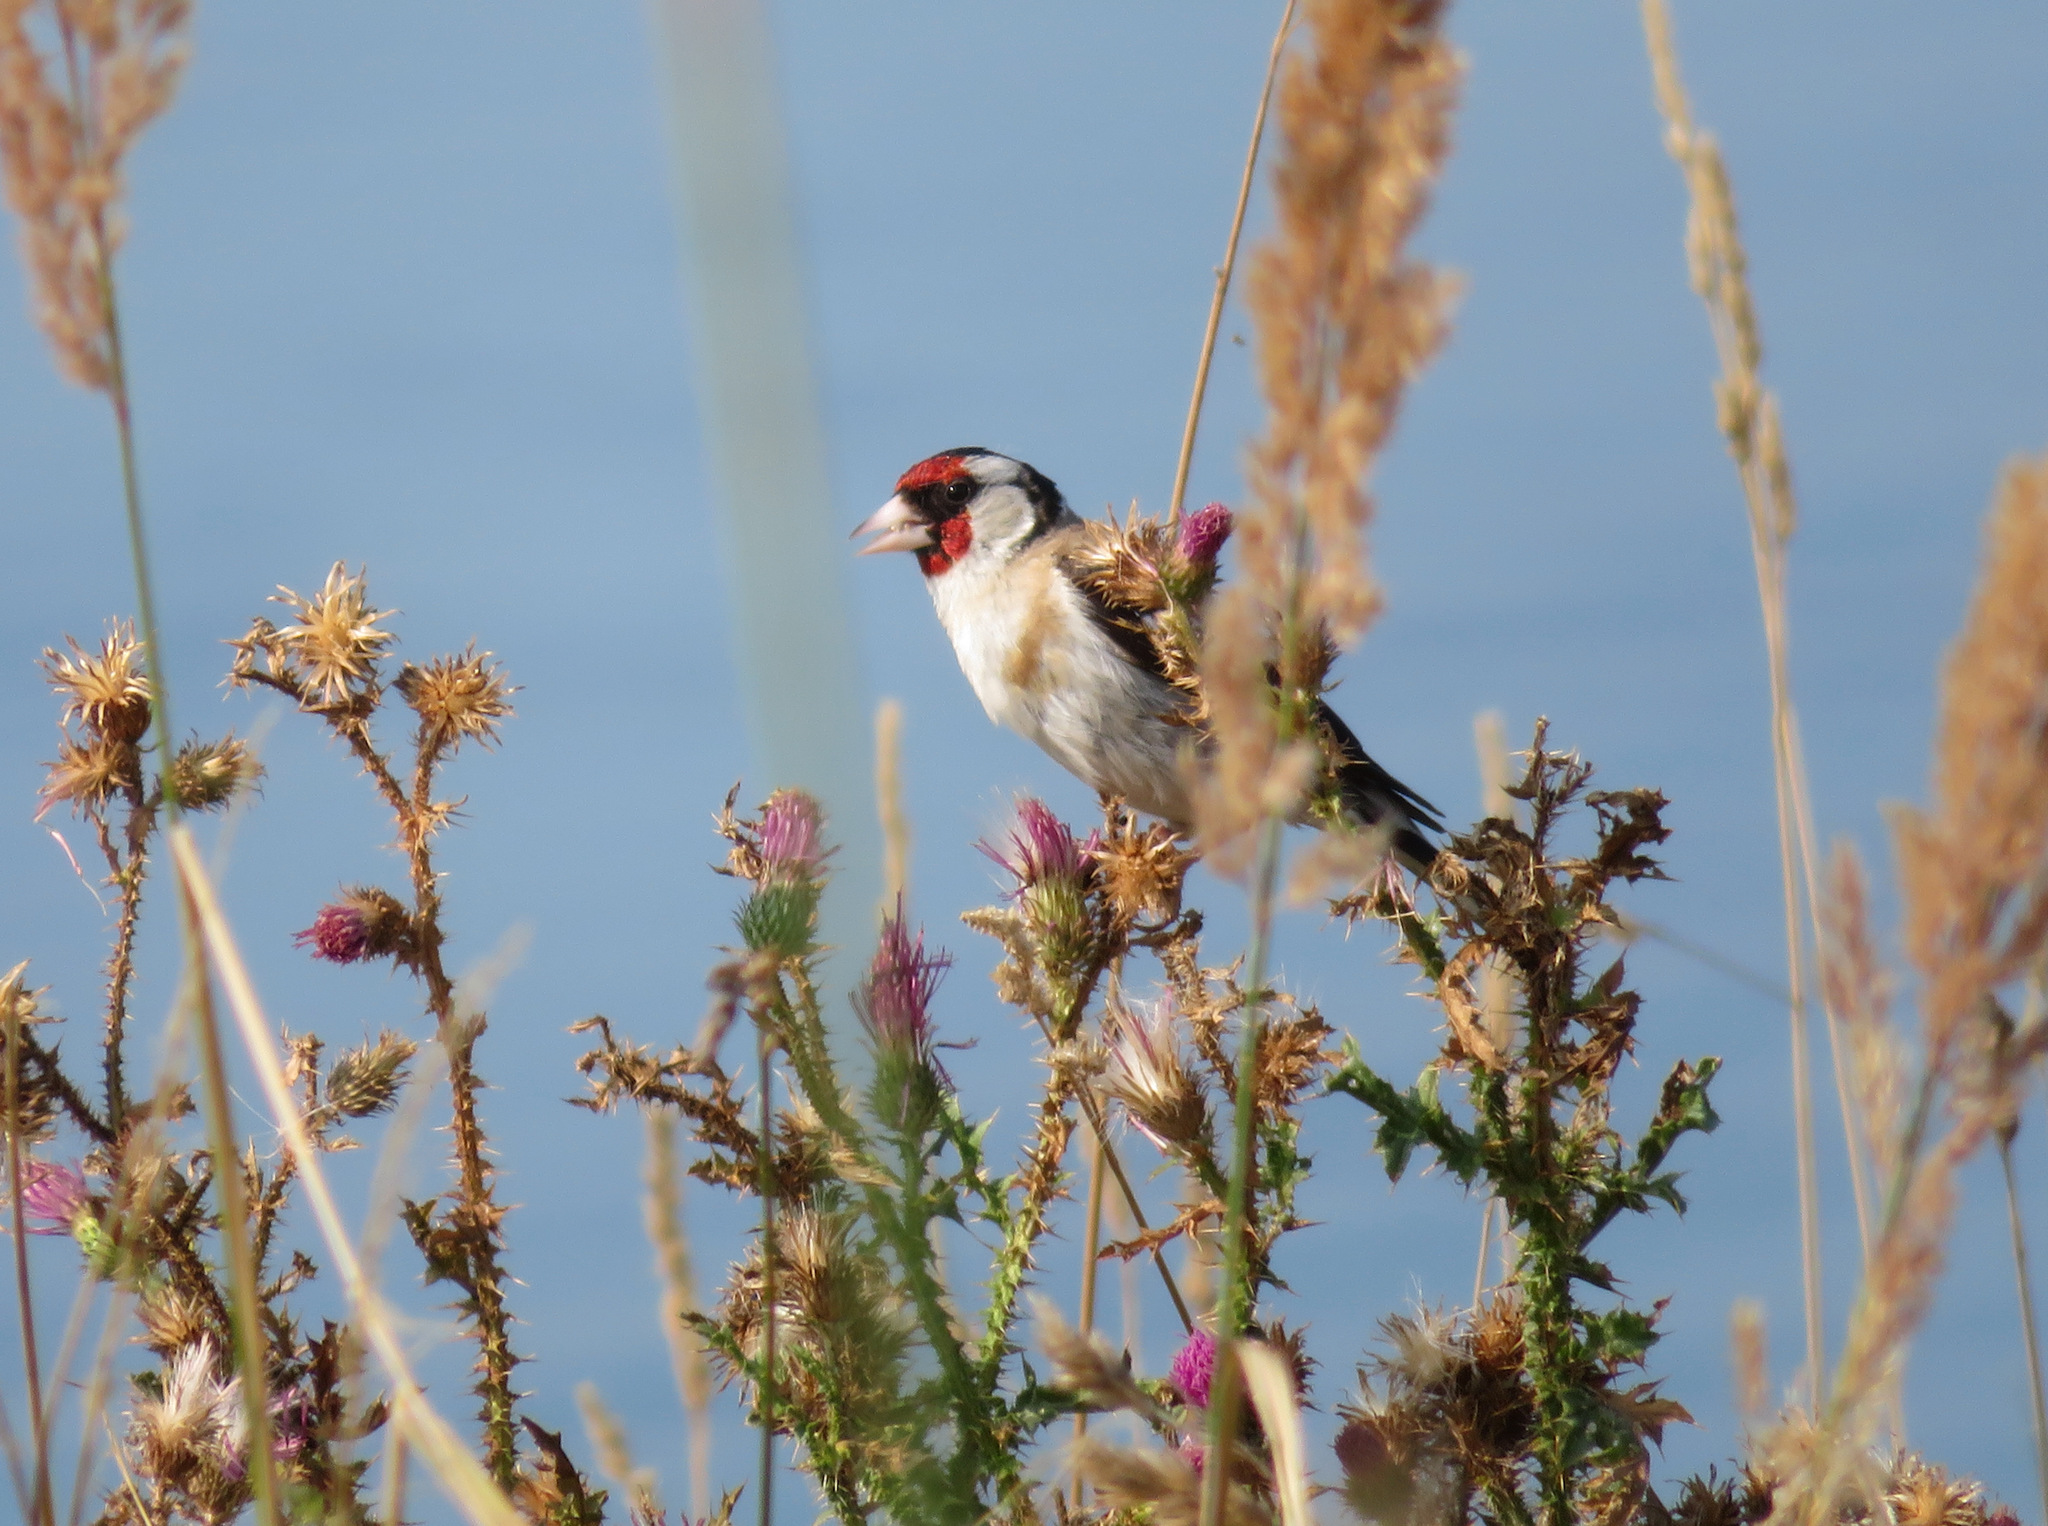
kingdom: Animalia
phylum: Chordata
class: Aves
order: Passeriformes
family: Fringillidae
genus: Carduelis
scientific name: Carduelis carduelis
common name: European goldfinch
